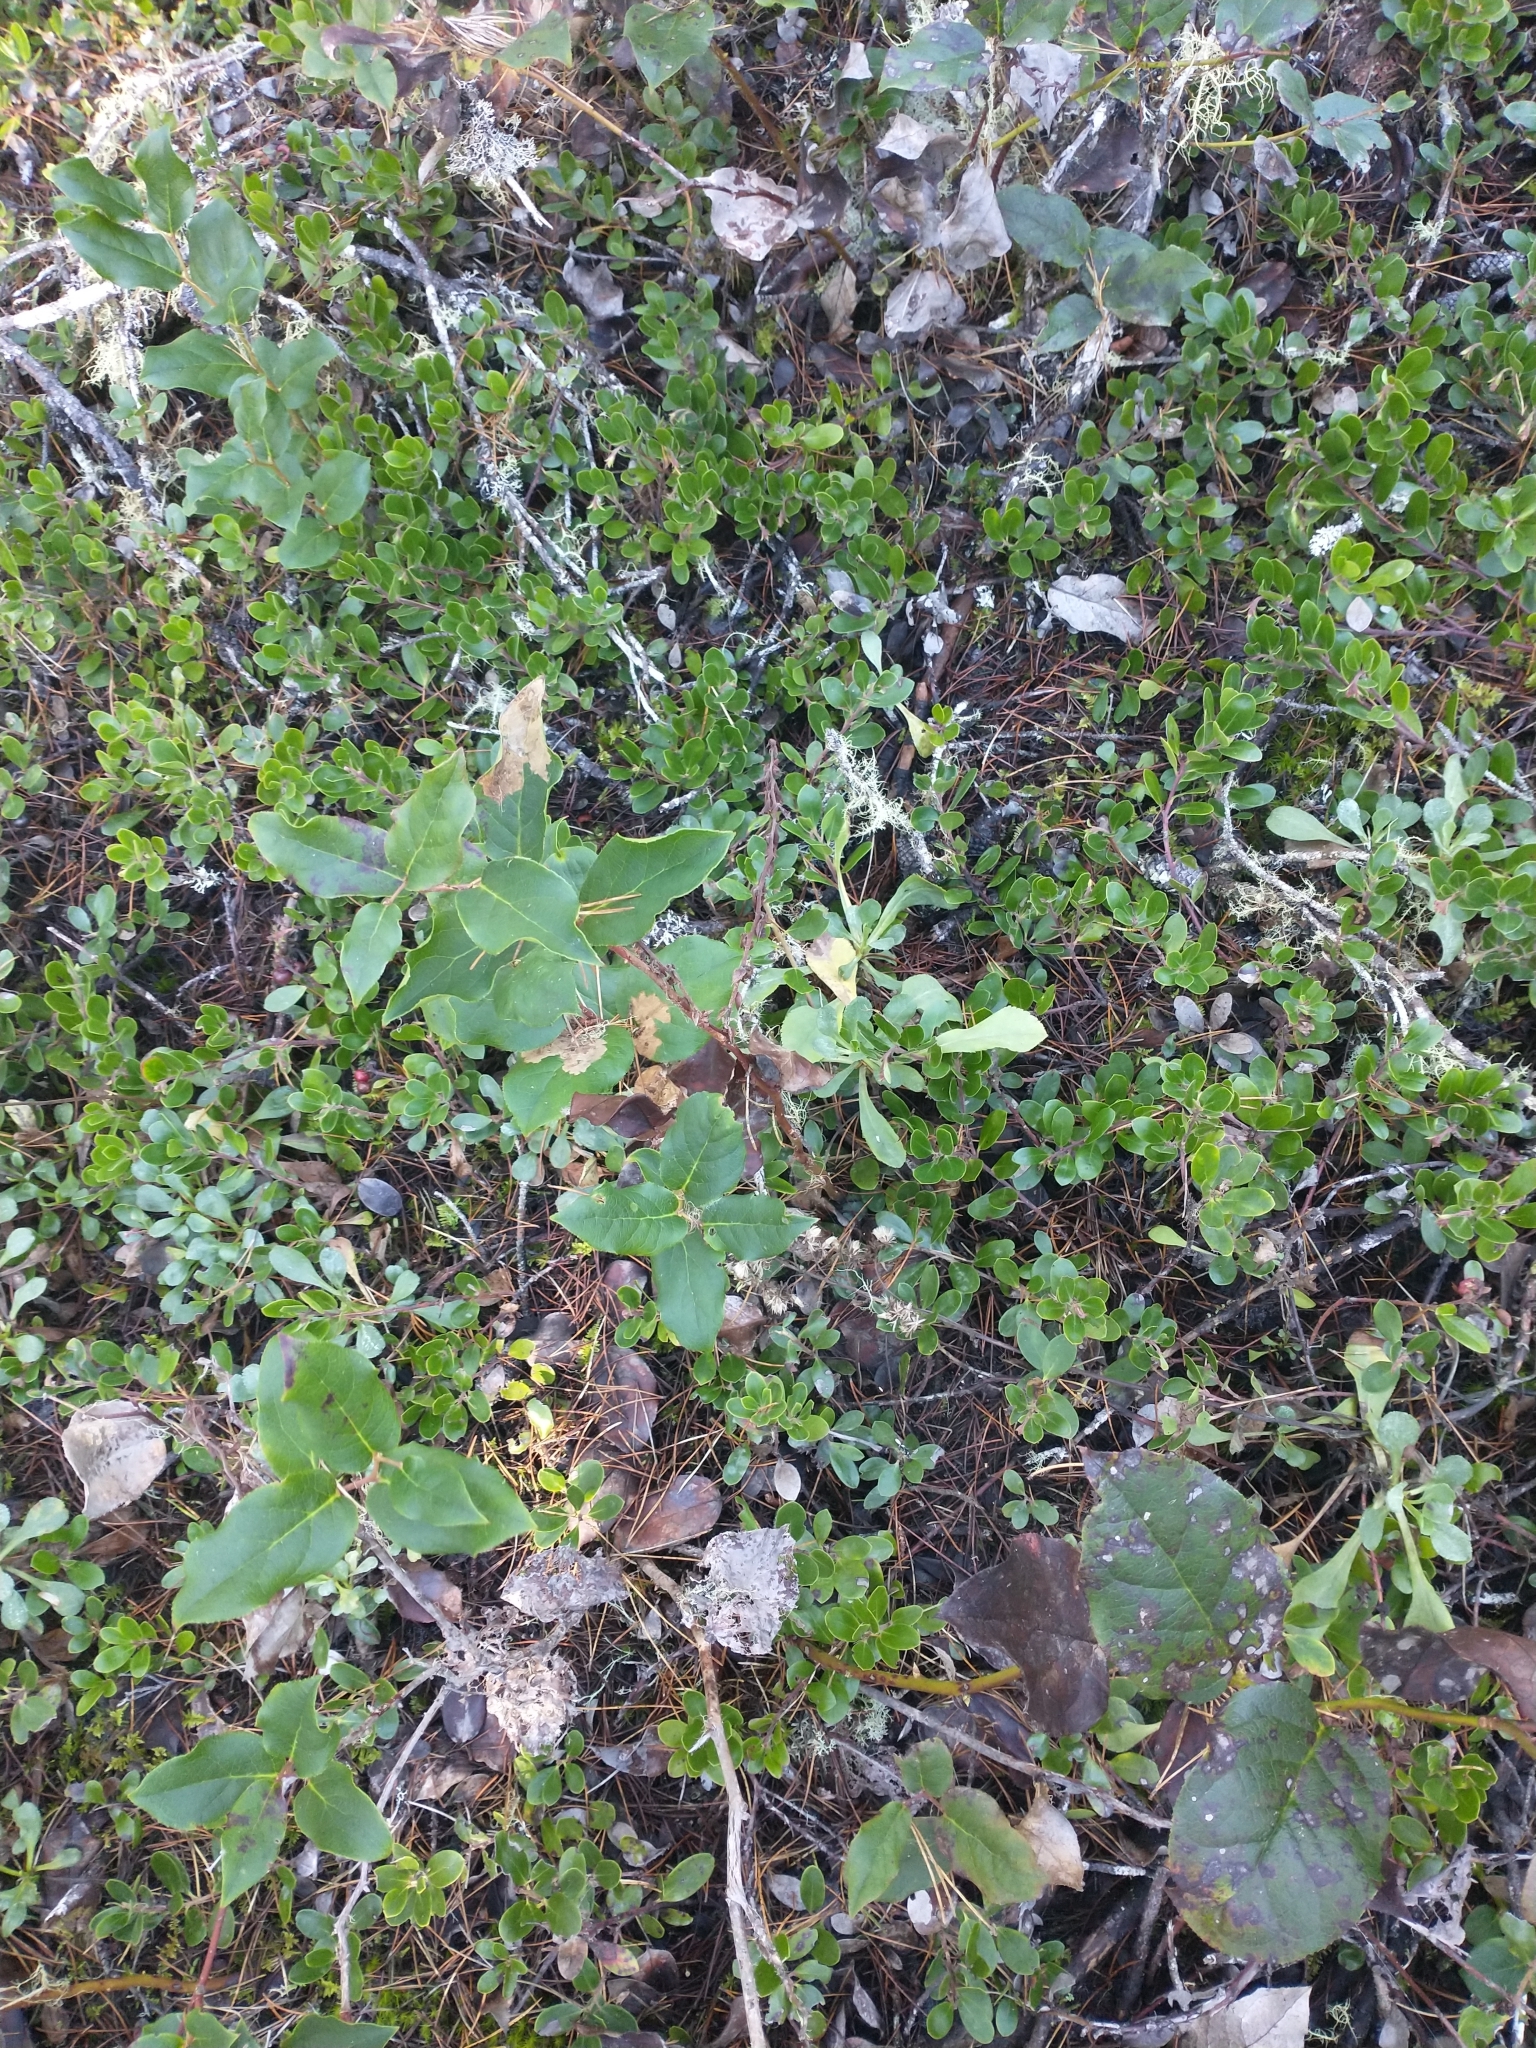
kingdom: Plantae
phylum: Tracheophyta
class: Magnoliopsida
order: Ericales
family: Ericaceae
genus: Gaultheria
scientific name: Gaultheria shallon
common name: Shallon
